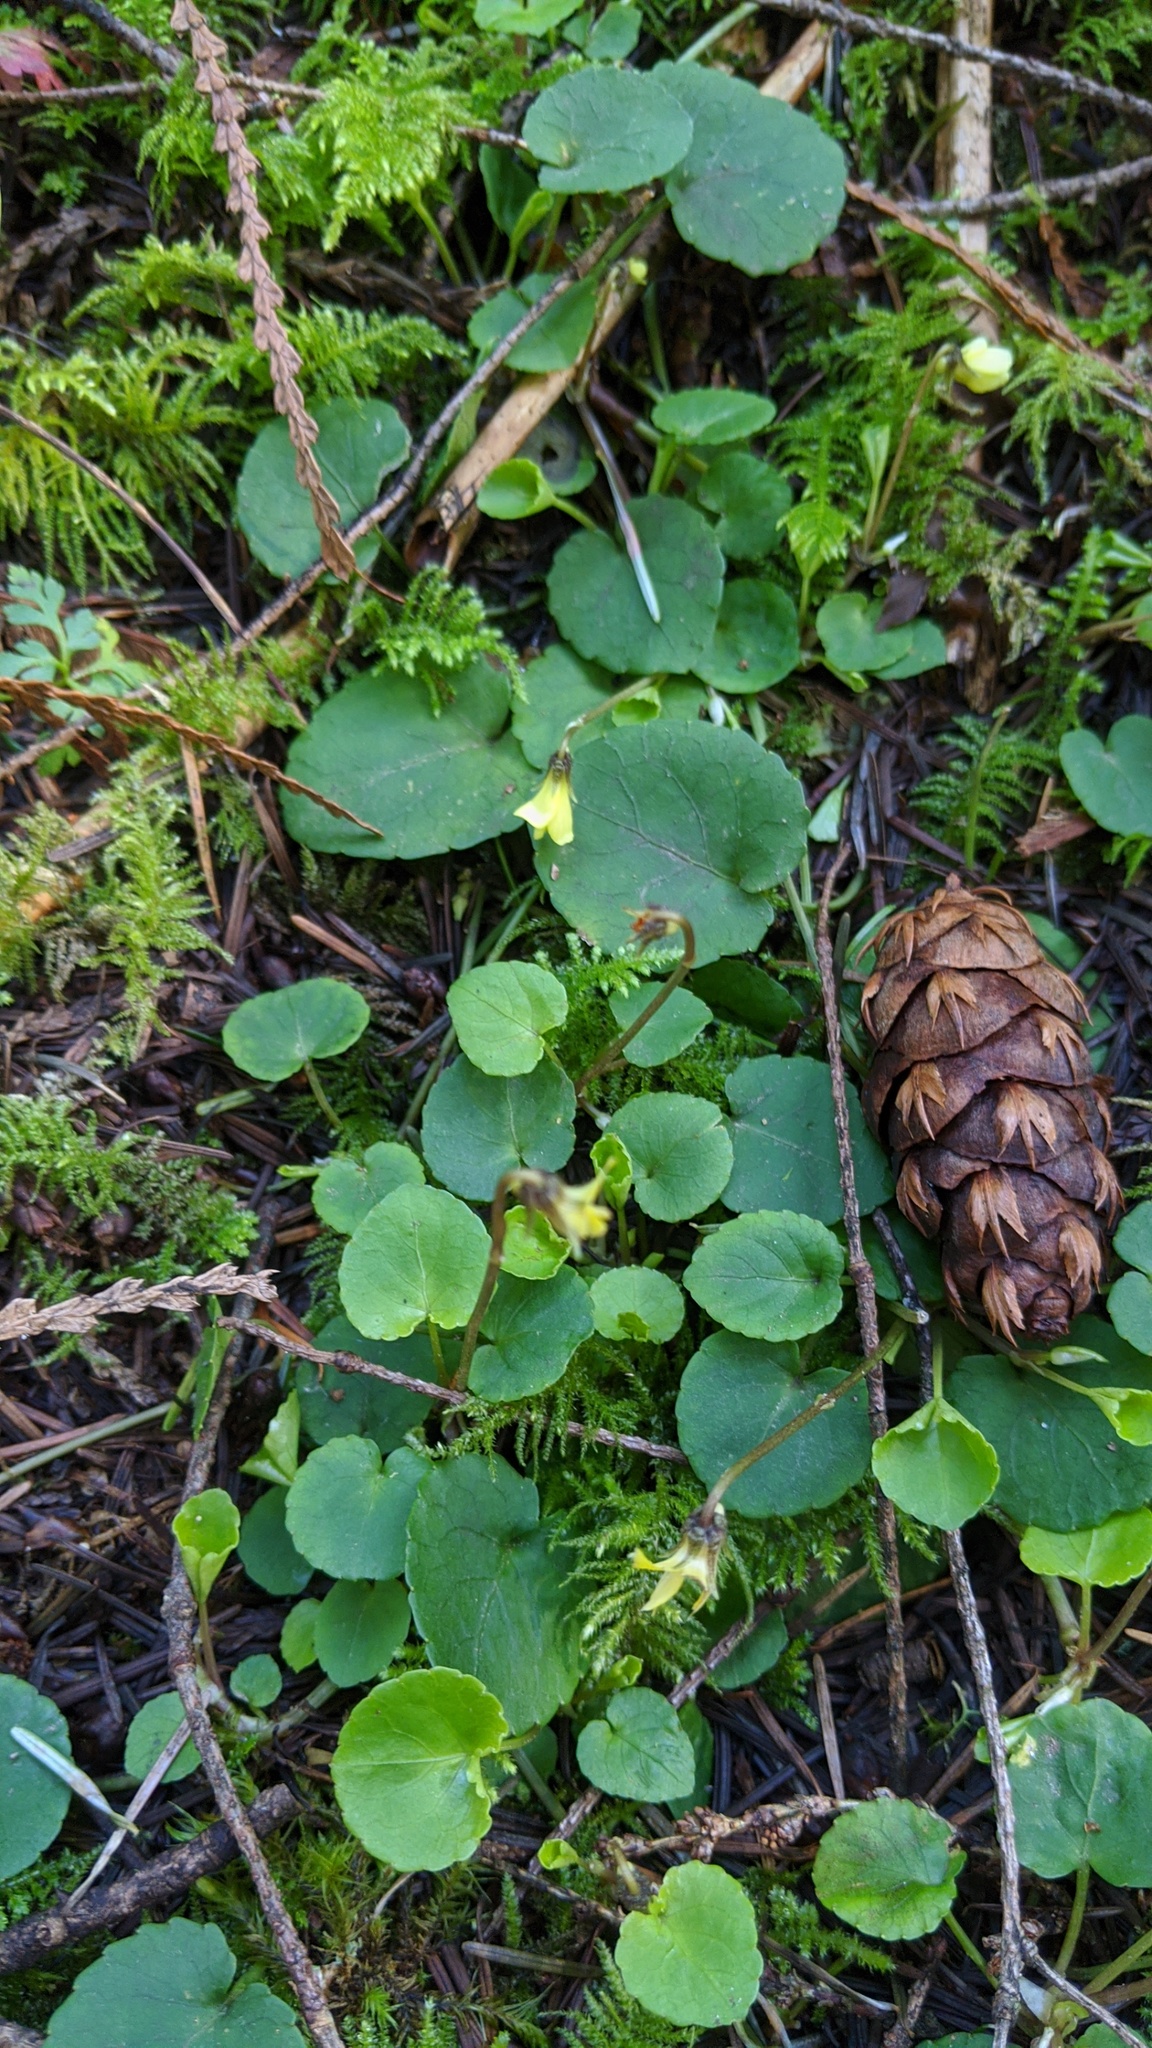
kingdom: Plantae
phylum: Tracheophyta
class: Magnoliopsida
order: Malpighiales
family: Violaceae
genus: Viola
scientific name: Viola sempervirens
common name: Evergreen violet
